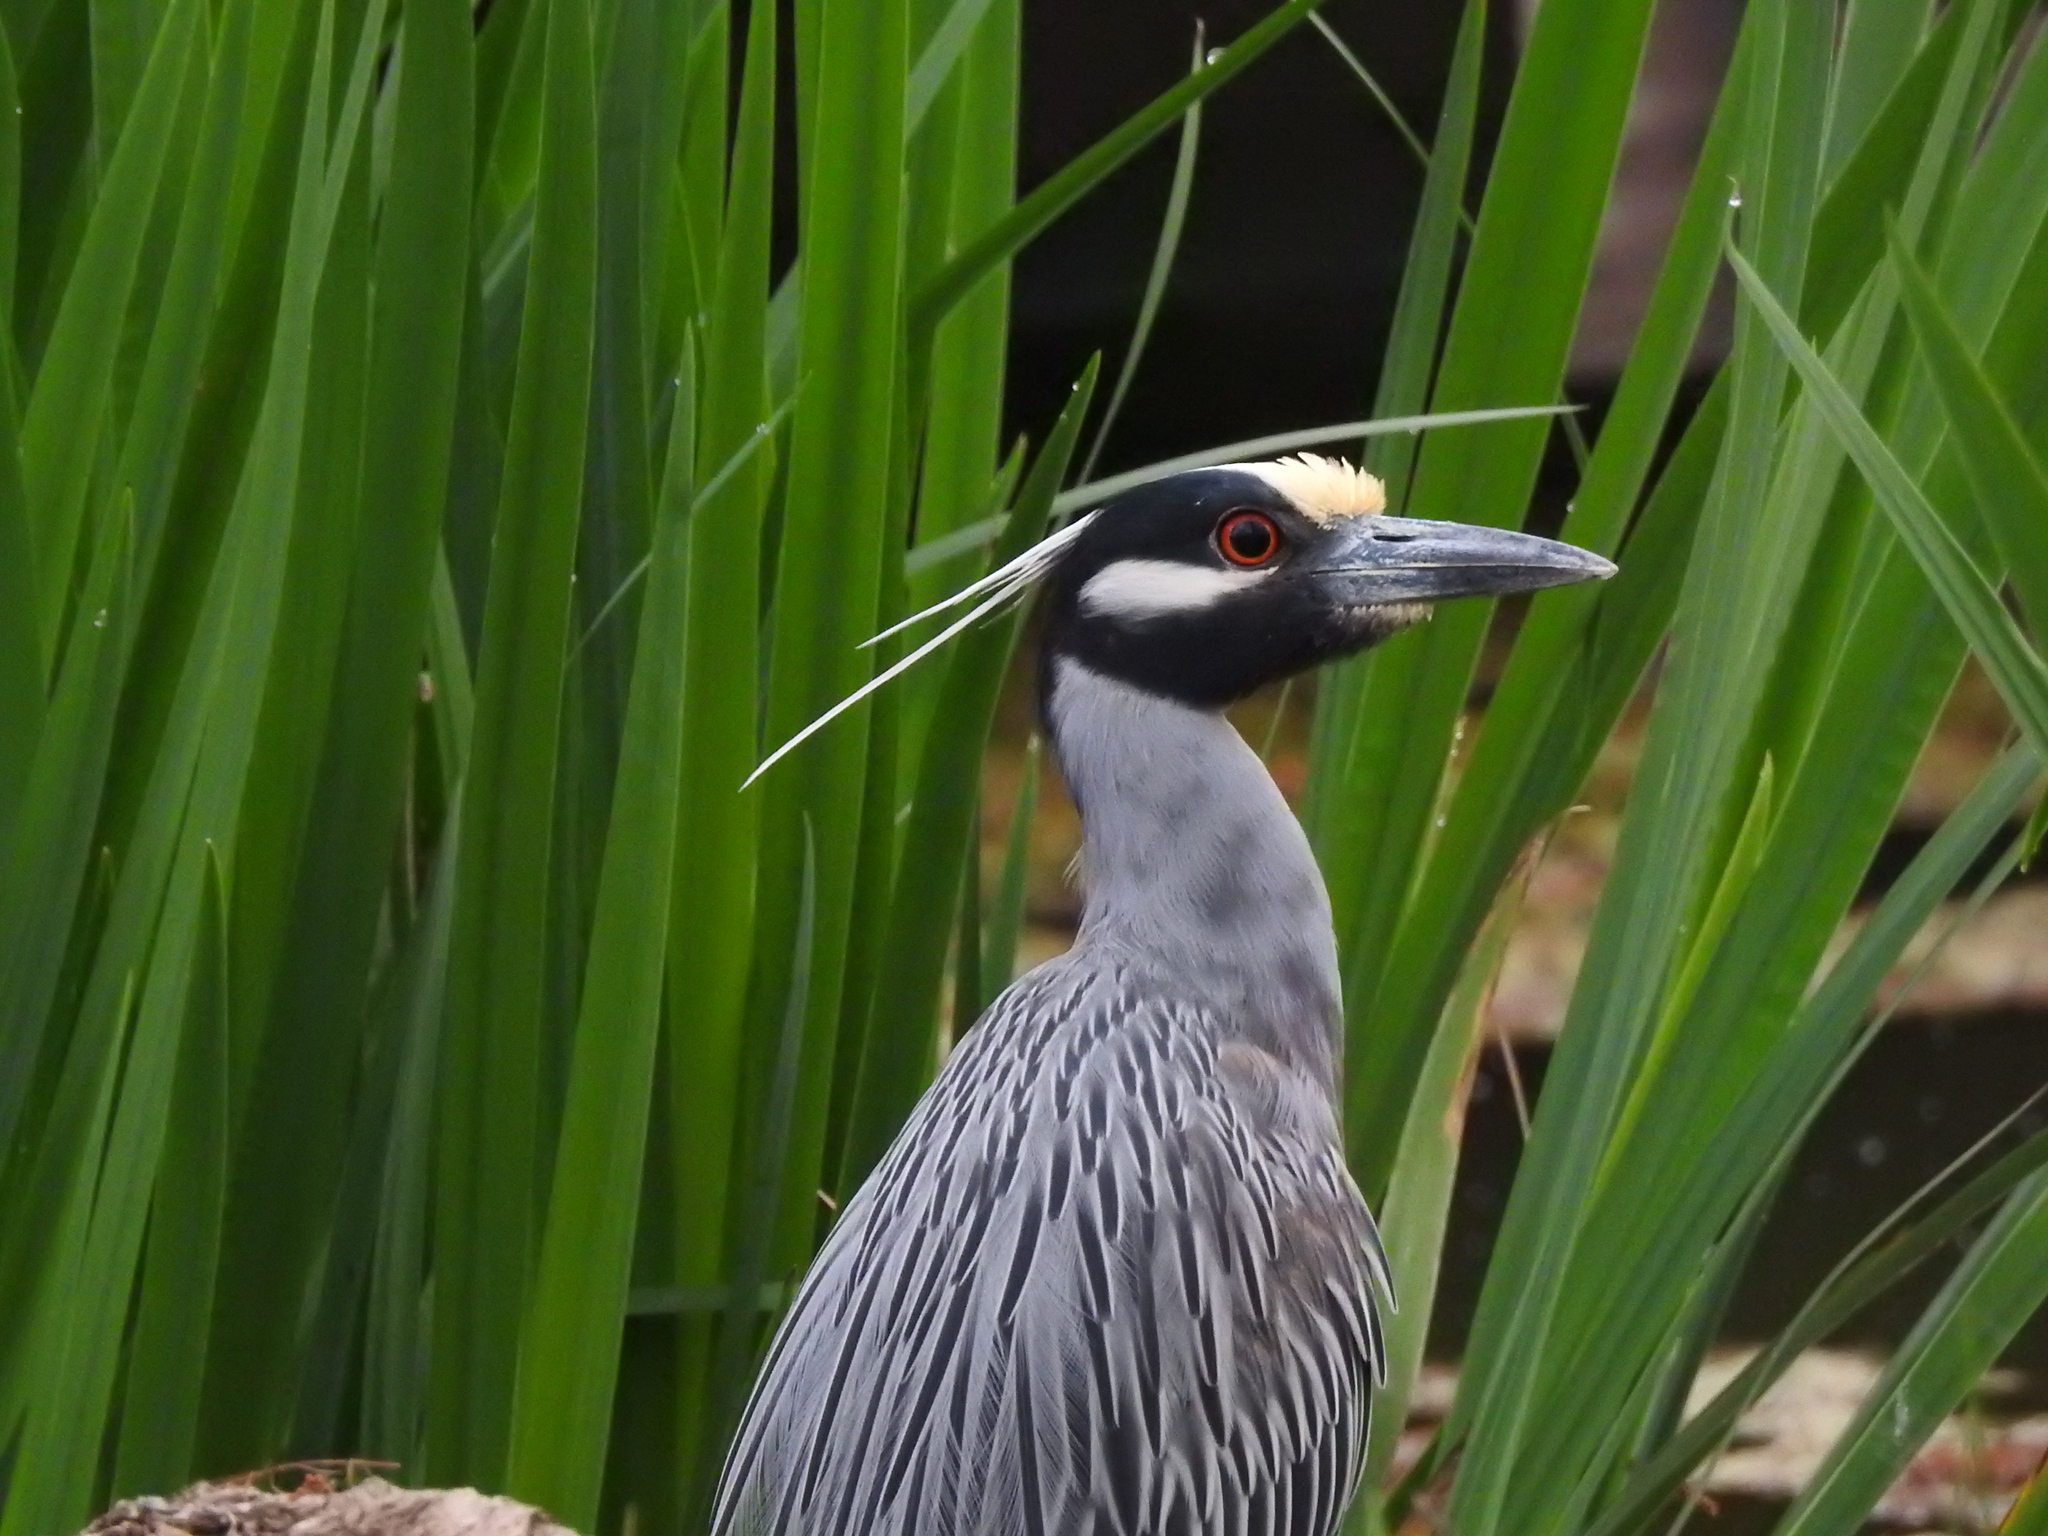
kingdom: Animalia
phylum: Chordata
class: Aves
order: Pelecaniformes
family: Ardeidae
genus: Nyctanassa
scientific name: Nyctanassa violacea
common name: Yellow-crowned night heron
